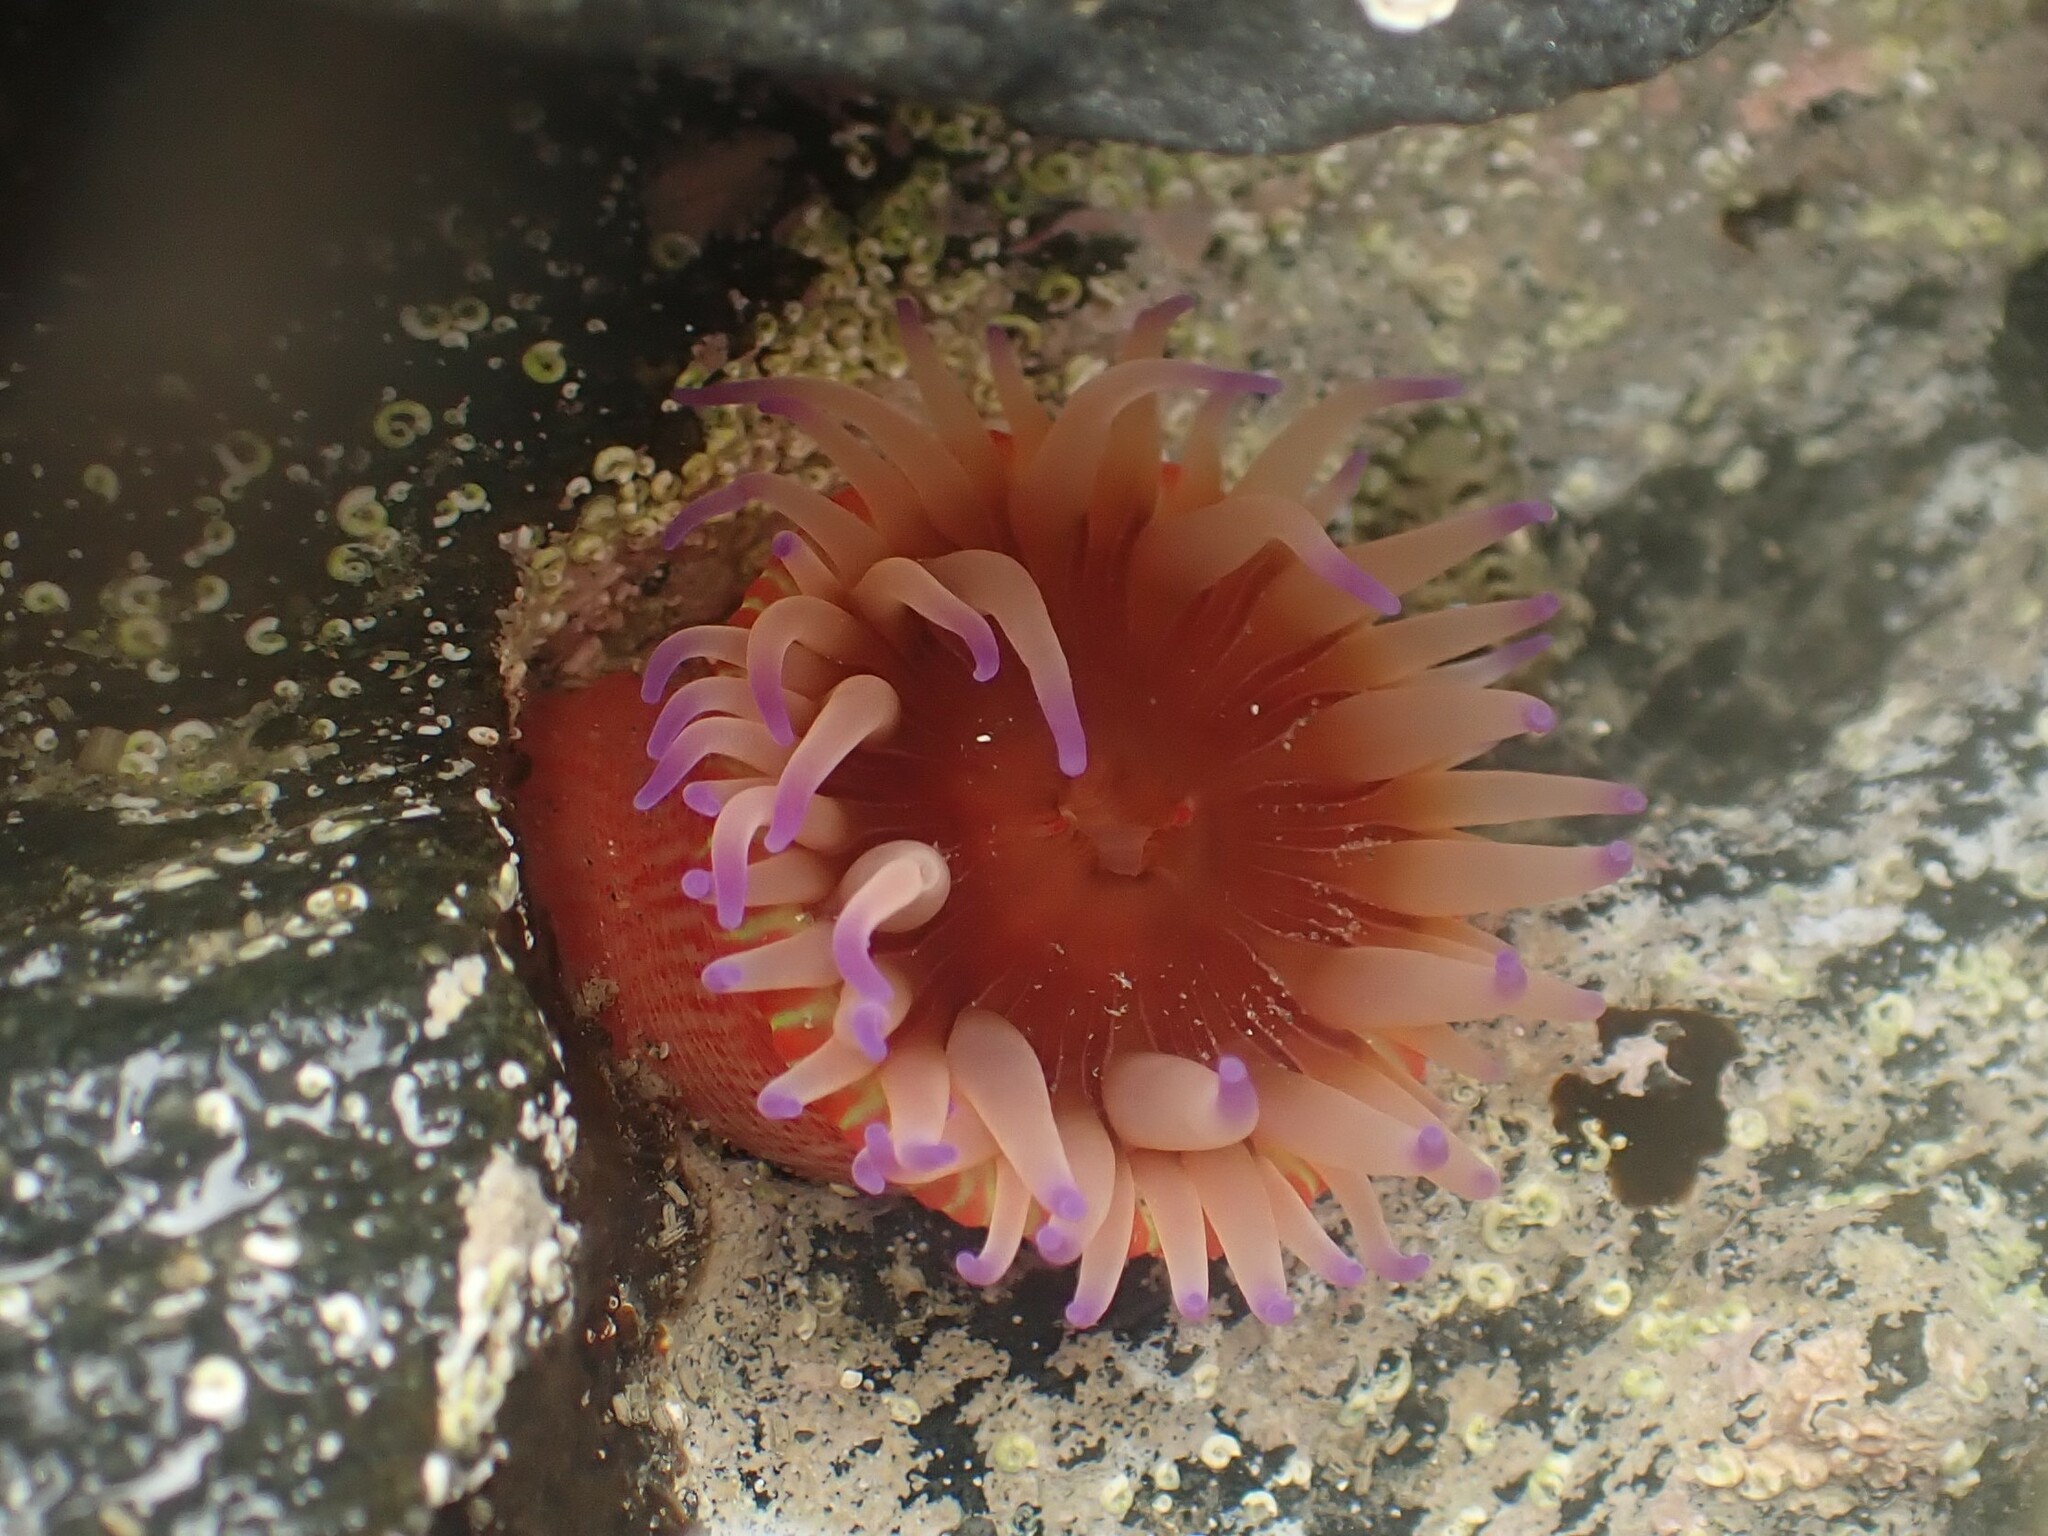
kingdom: Animalia
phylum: Cnidaria
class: Anthozoa
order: Actiniaria
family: Actiniidae
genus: Epiactis
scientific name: Epiactis thompsoni
